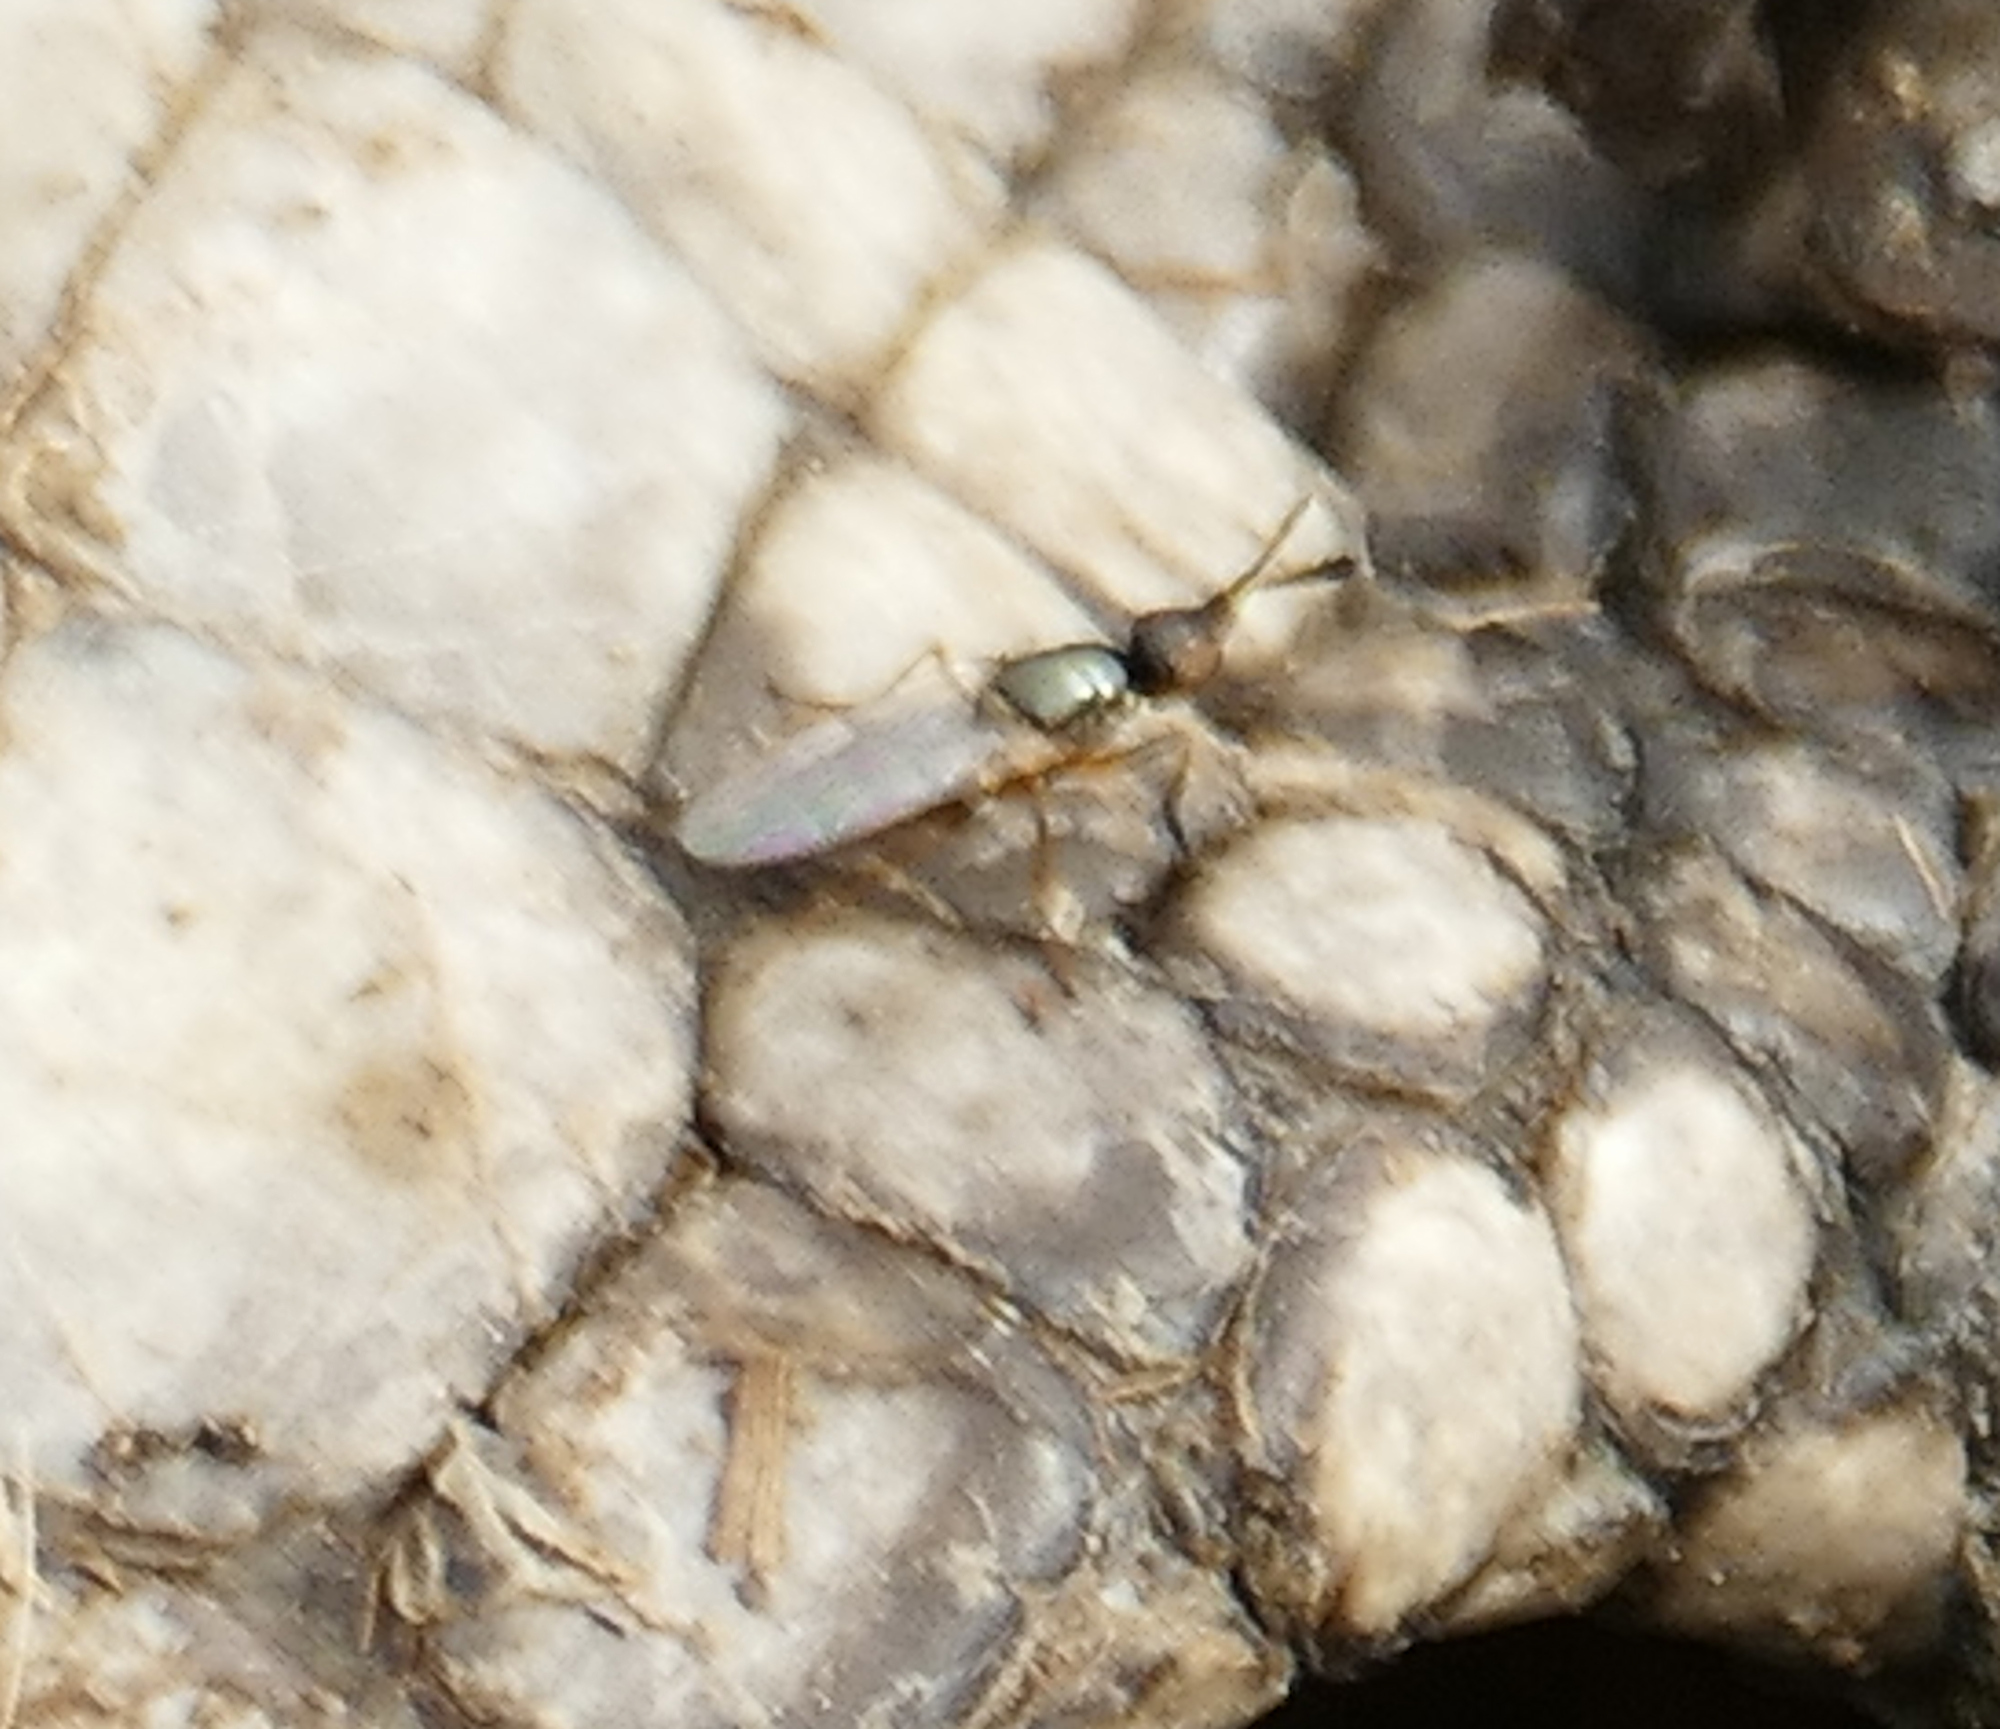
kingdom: Animalia
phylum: Arthropoda
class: Insecta
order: Diptera
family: Piophilidae
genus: Prochyliza
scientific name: Prochyliza xanthostoma
